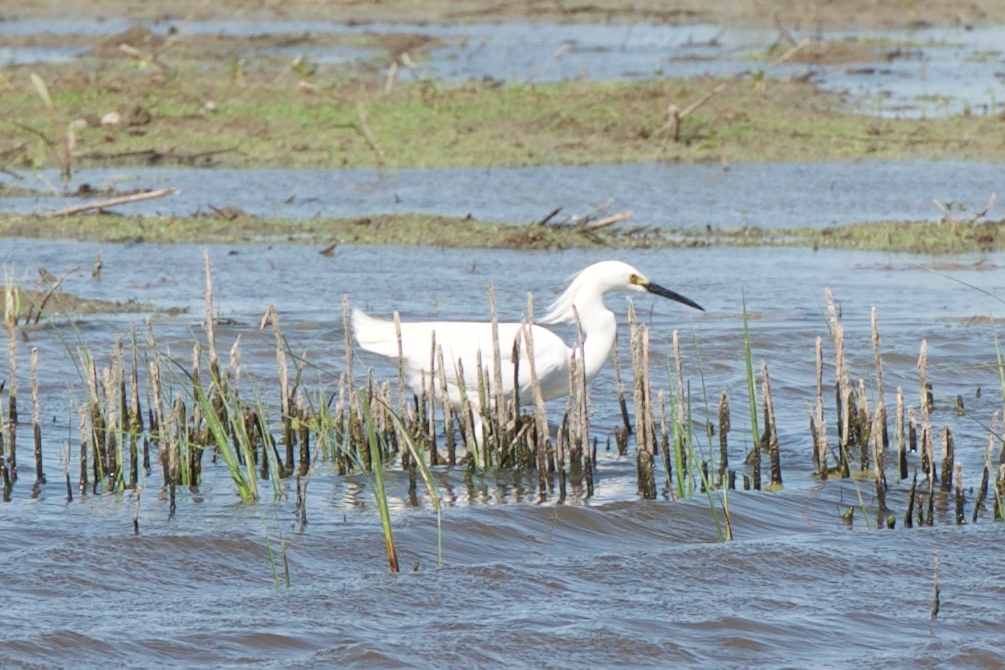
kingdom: Animalia
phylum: Chordata
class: Aves
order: Pelecaniformes
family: Ardeidae
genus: Egretta
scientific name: Egretta thula
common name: Snowy egret
